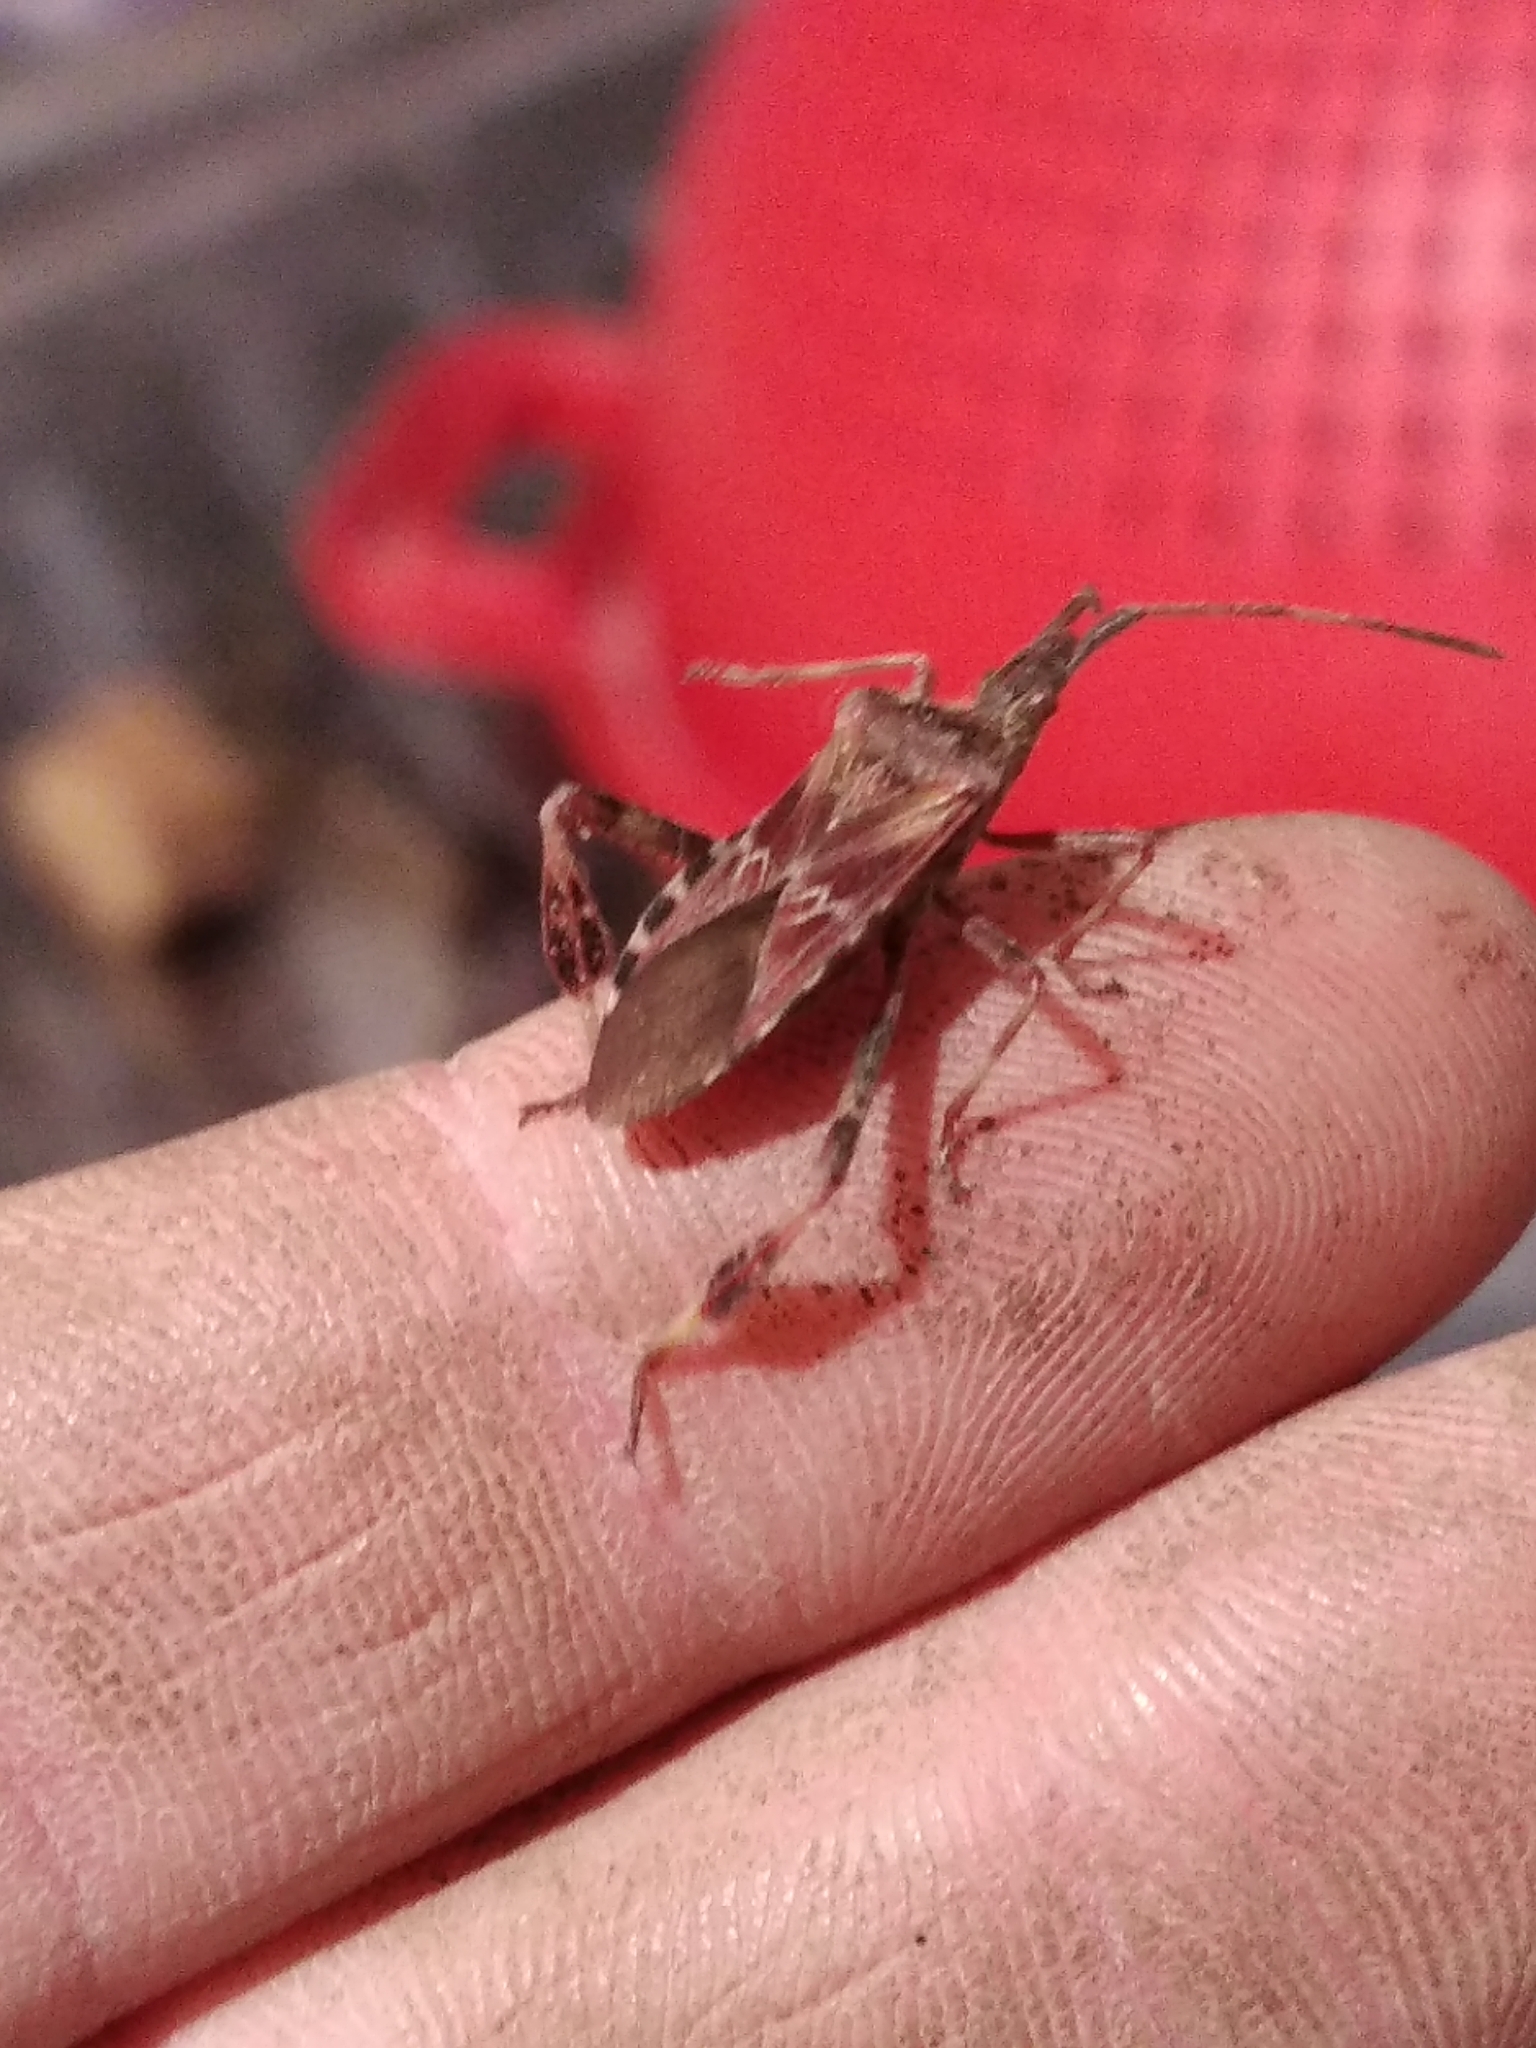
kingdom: Animalia
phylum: Arthropoda
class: Insecta
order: Hemiptera
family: Coreidae
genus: Leptoglossus
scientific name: Leptoglossus occidentalis
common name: Western conifer-seed bug
